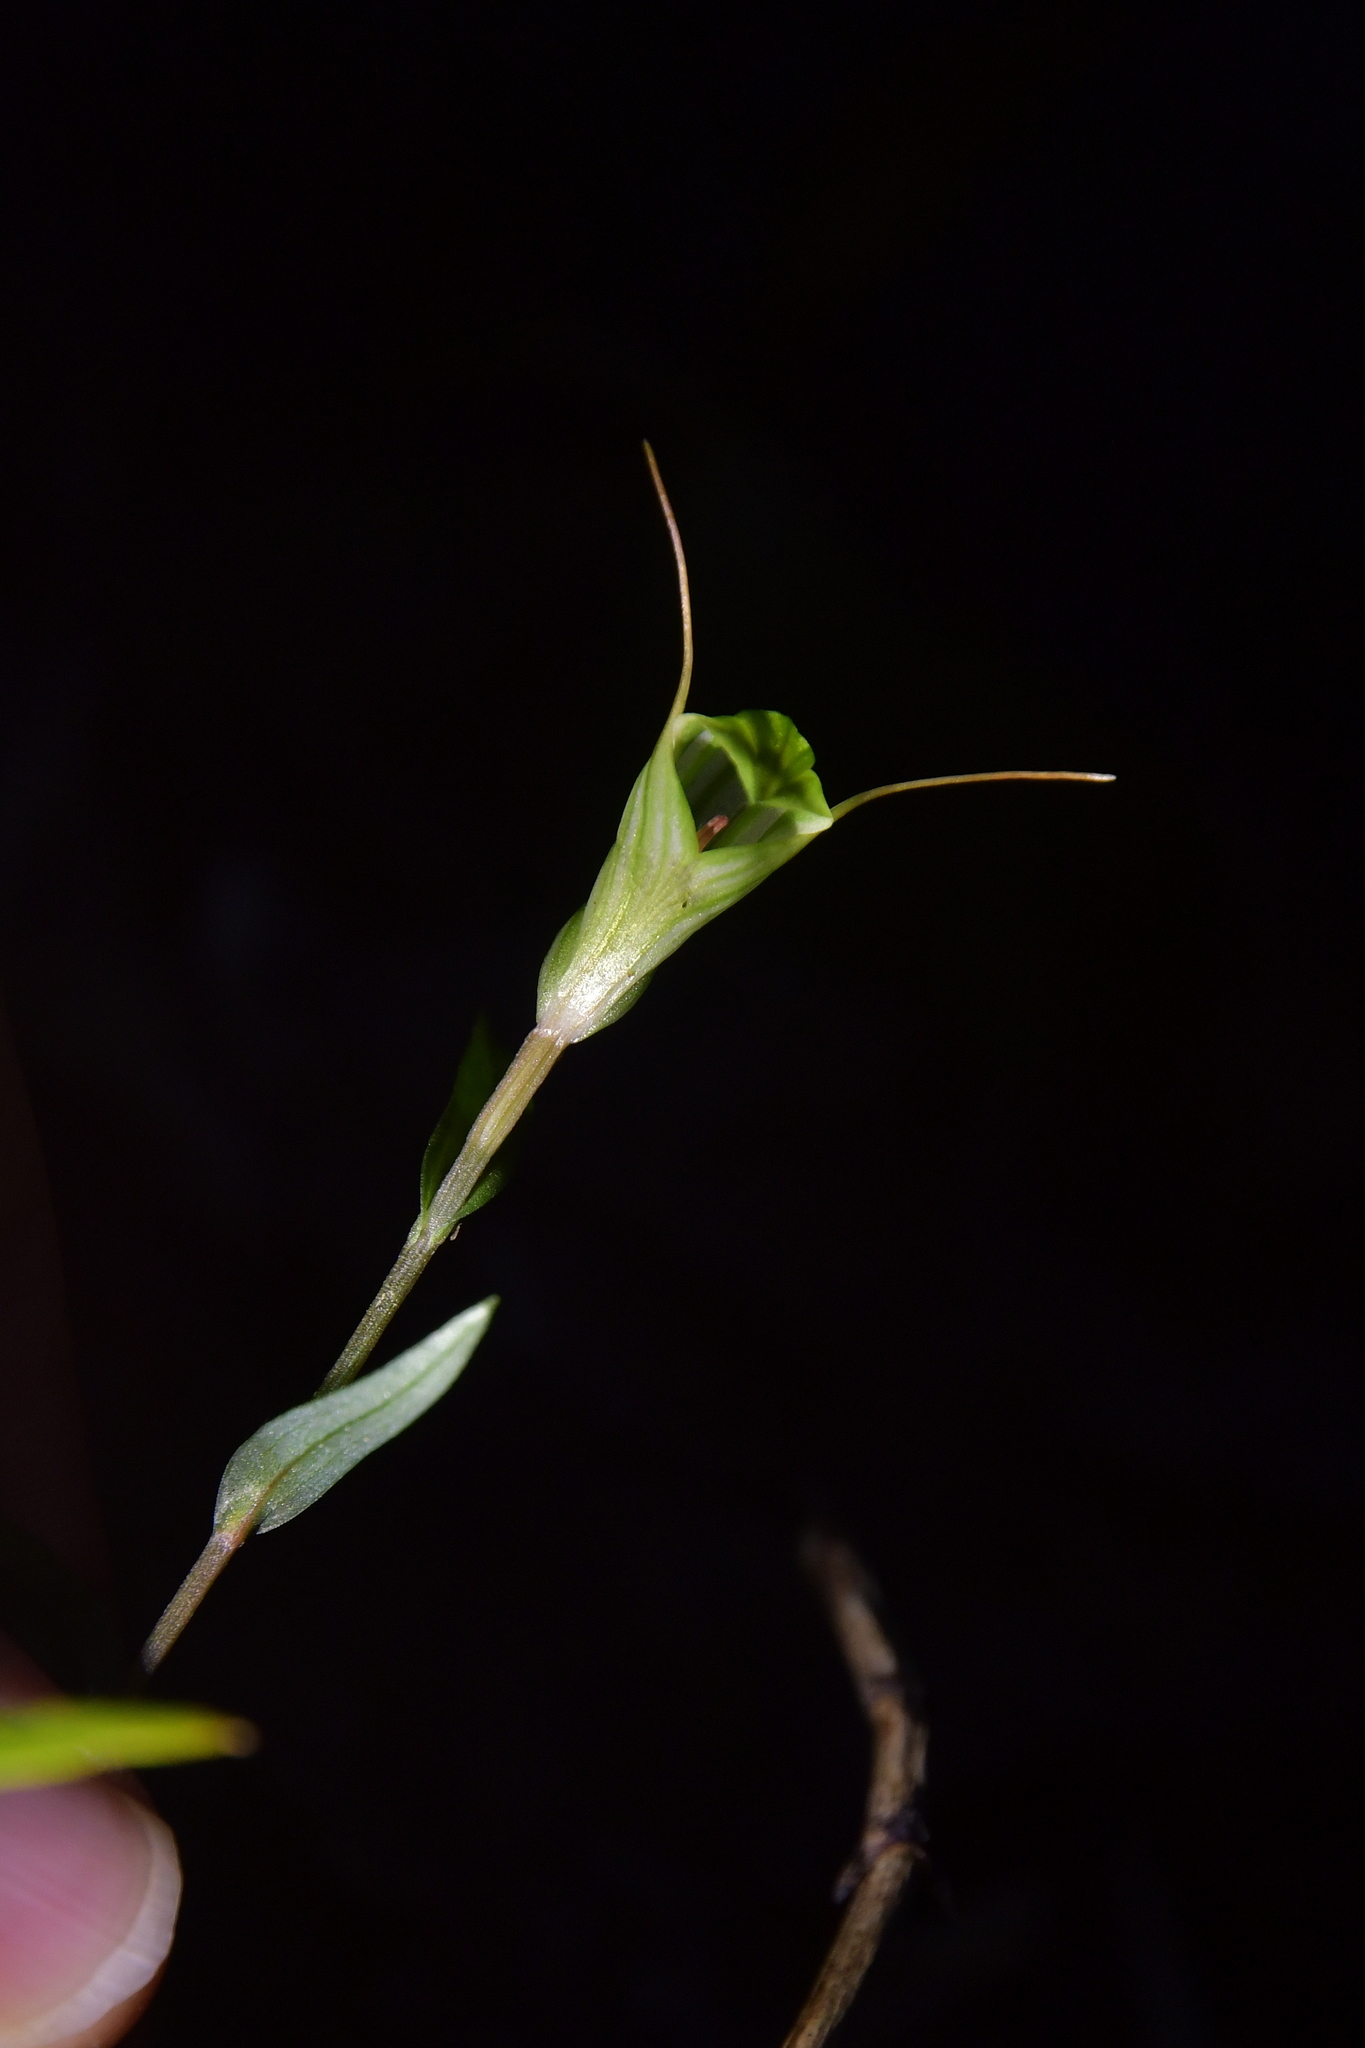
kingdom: Plantae
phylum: Tracheophyta
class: Liliopsida
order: Asparagales
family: Orchidaceae
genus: Pterostylis
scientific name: Pterostylis alobula
